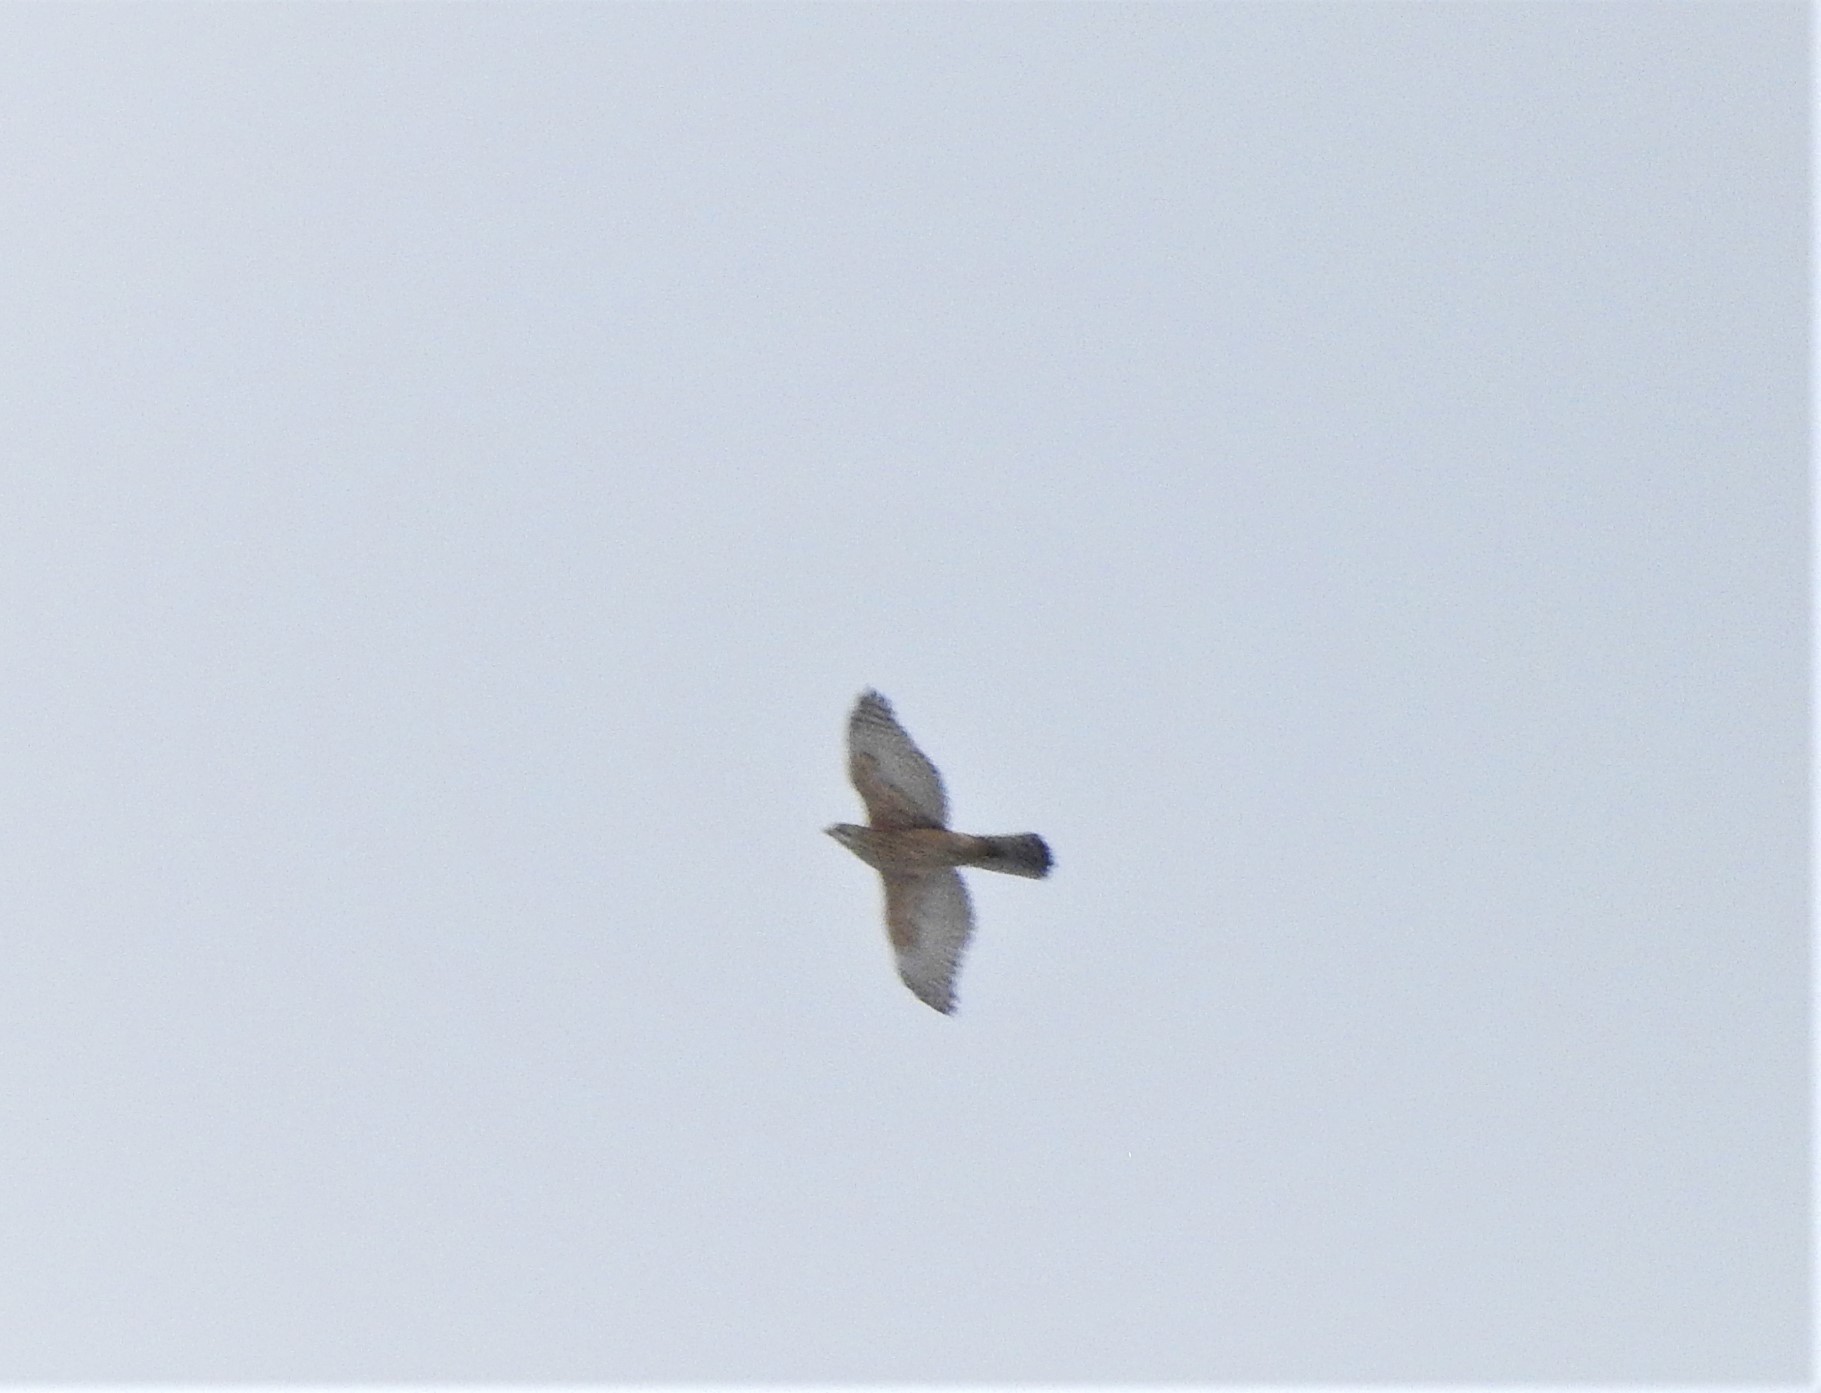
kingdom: Animalia
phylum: Chordata
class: Aves
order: Accipitriformes
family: Accipitridae
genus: Accipiter
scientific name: Accipiter gentilis
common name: Northern goshawk
